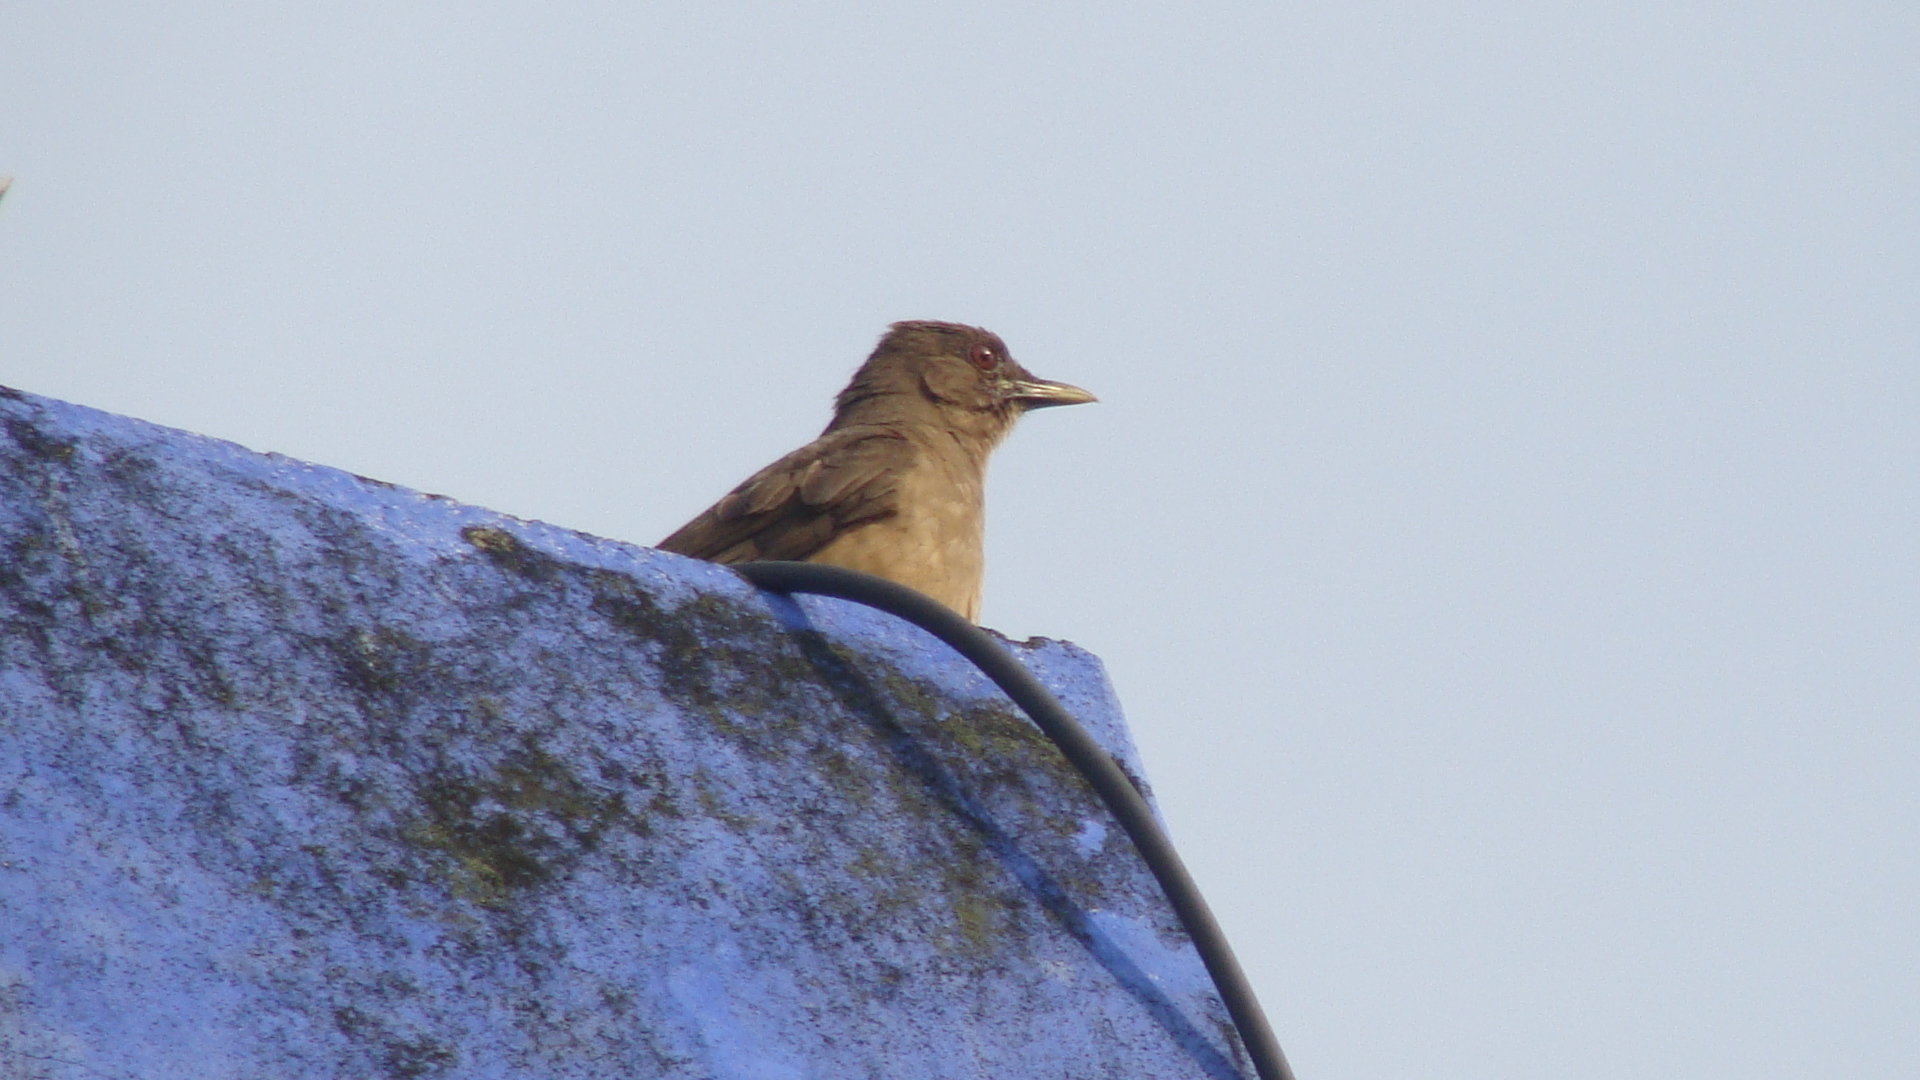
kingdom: Animalia
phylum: Chordata
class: Aves
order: Passeriformes
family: Turdidae
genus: Turdus
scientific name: Turdus grayi
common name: Clay-colored thrush
